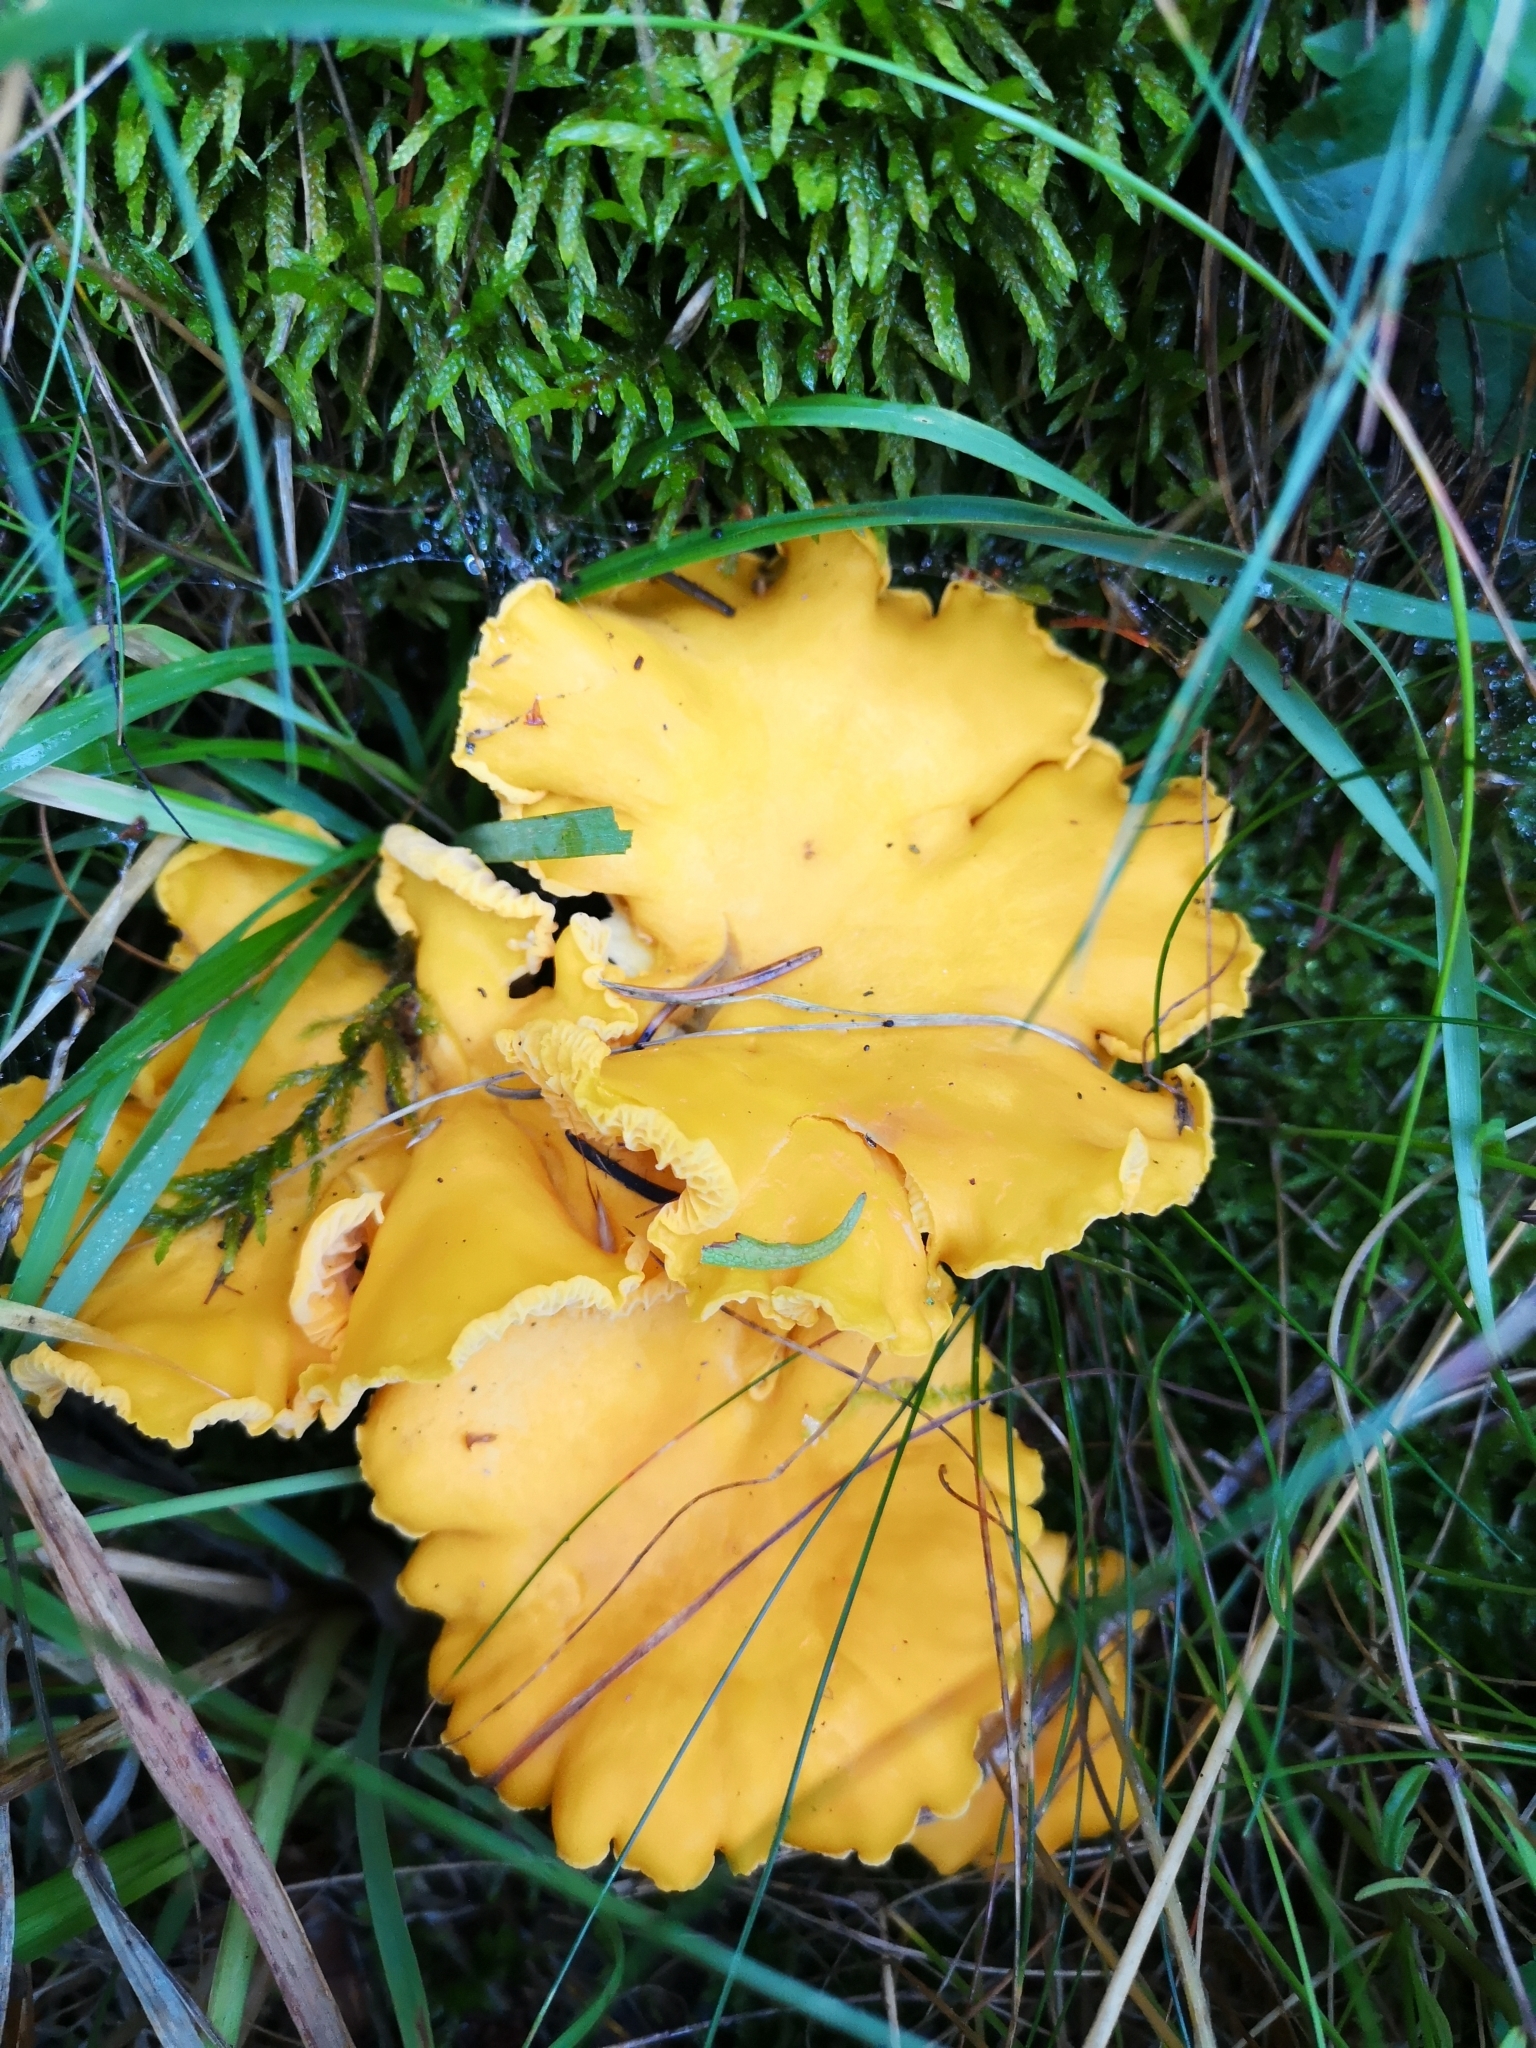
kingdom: Fungi
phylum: Basidiomycota
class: Agaricomycetes
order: Cantharellales
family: Hydnaceae
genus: Cantharellus
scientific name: Cantharellus cibarius
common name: Chanterelle
